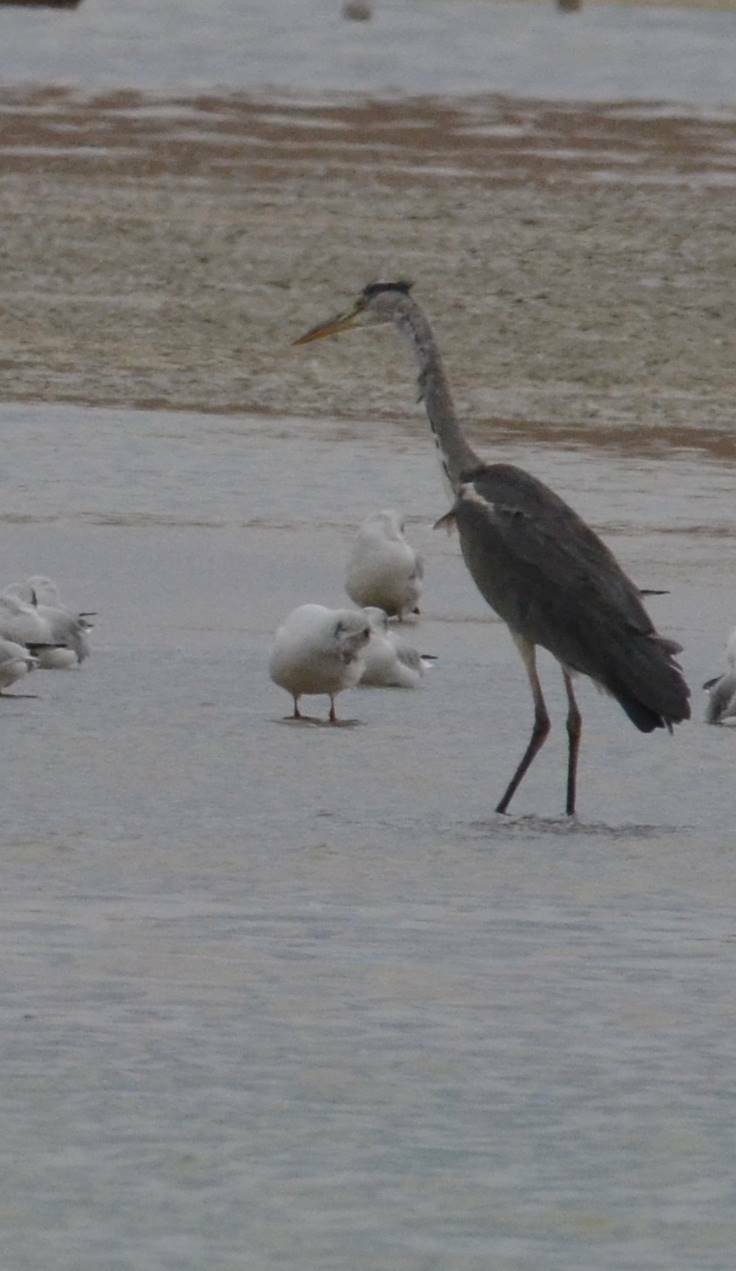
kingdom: Animalia
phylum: Chordata
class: Aves
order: Pelecaniformes
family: Ardeidae
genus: Ardea
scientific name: Ardea cinerea
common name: Grey heron
